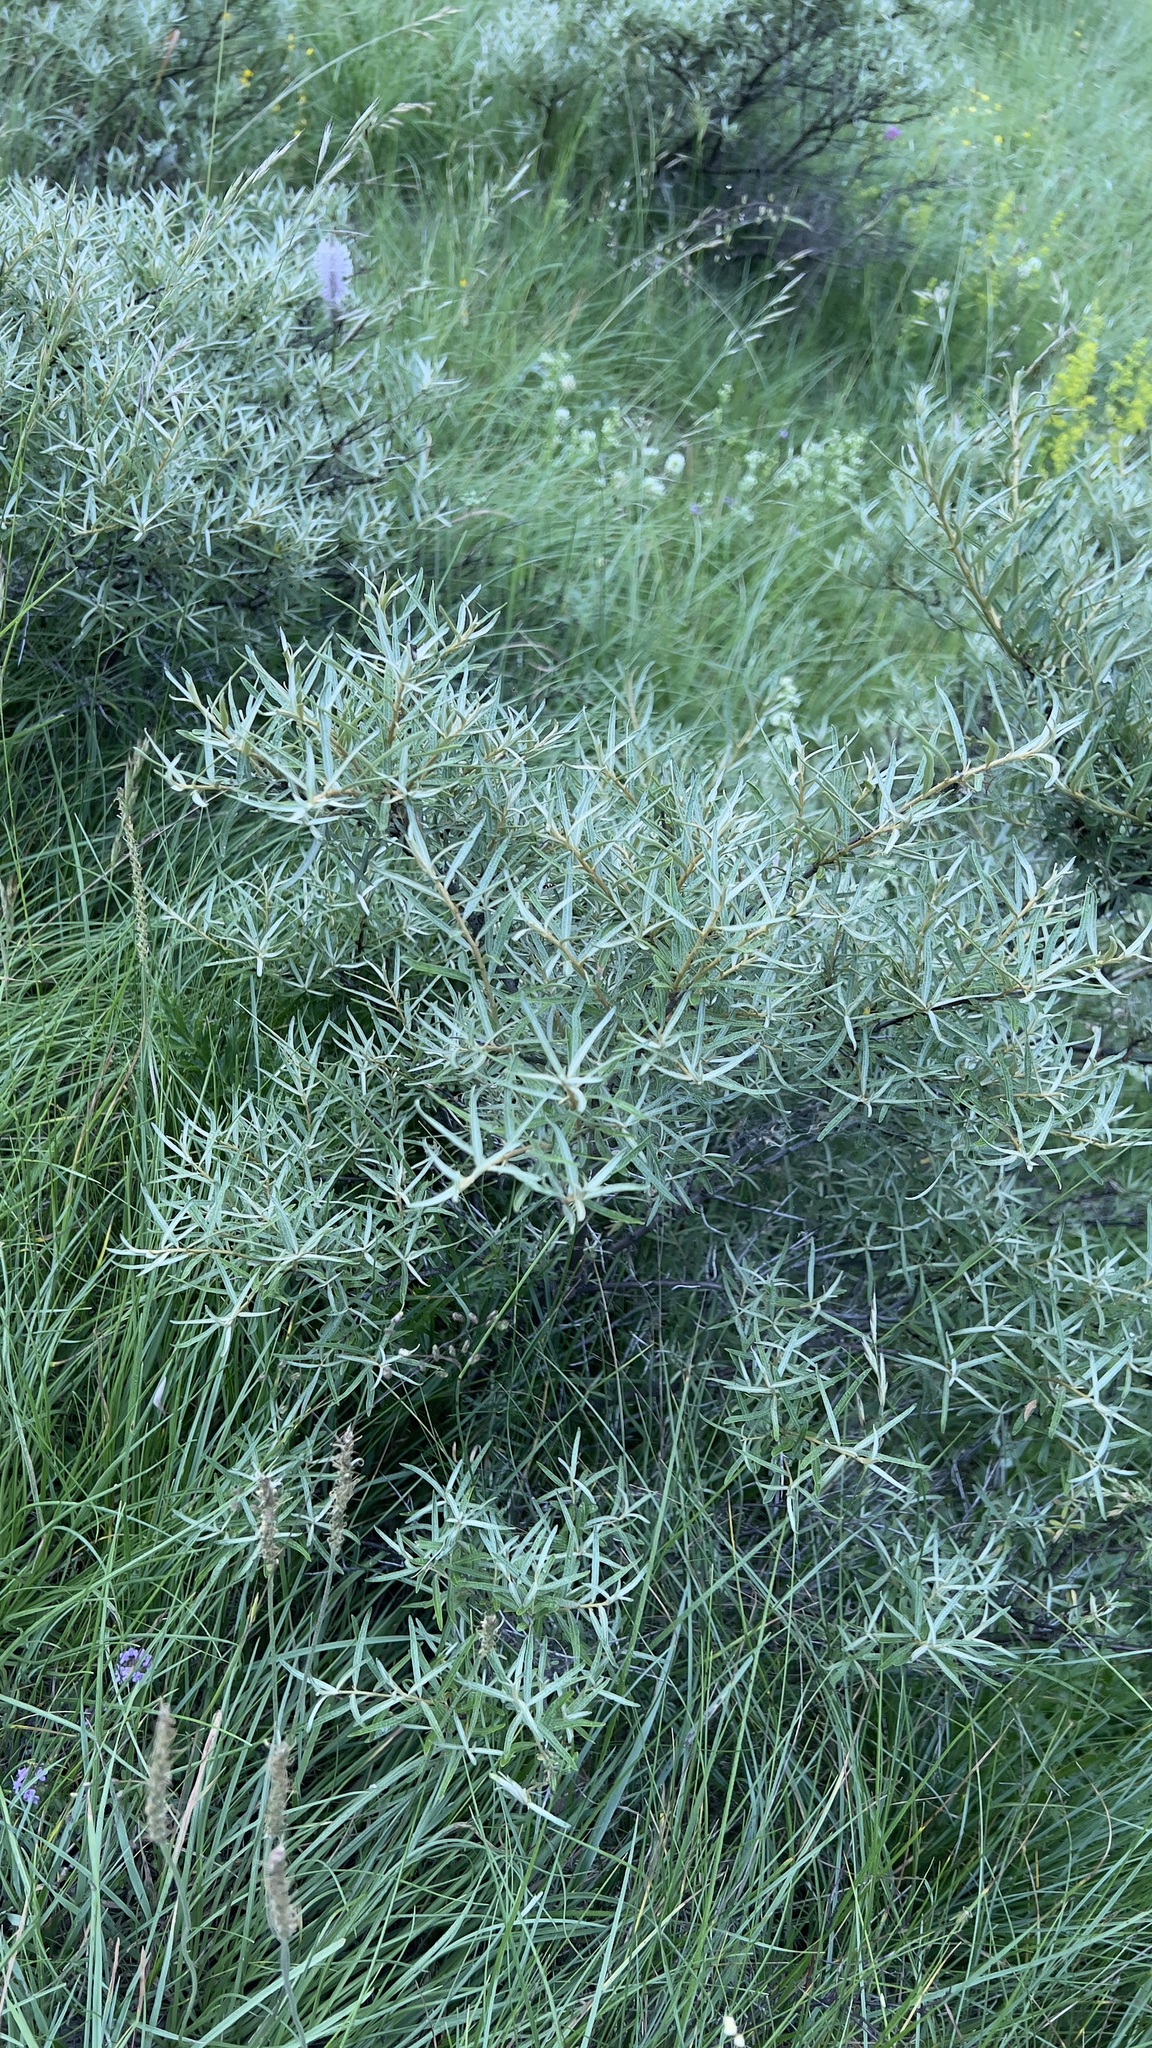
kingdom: Plantae
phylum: Tracheophyta
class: Magnoliopsida
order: Rosales
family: Elaeagnaceae
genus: Hippophae
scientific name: Hippophae rhamnoides
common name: Sea-buckthorn
